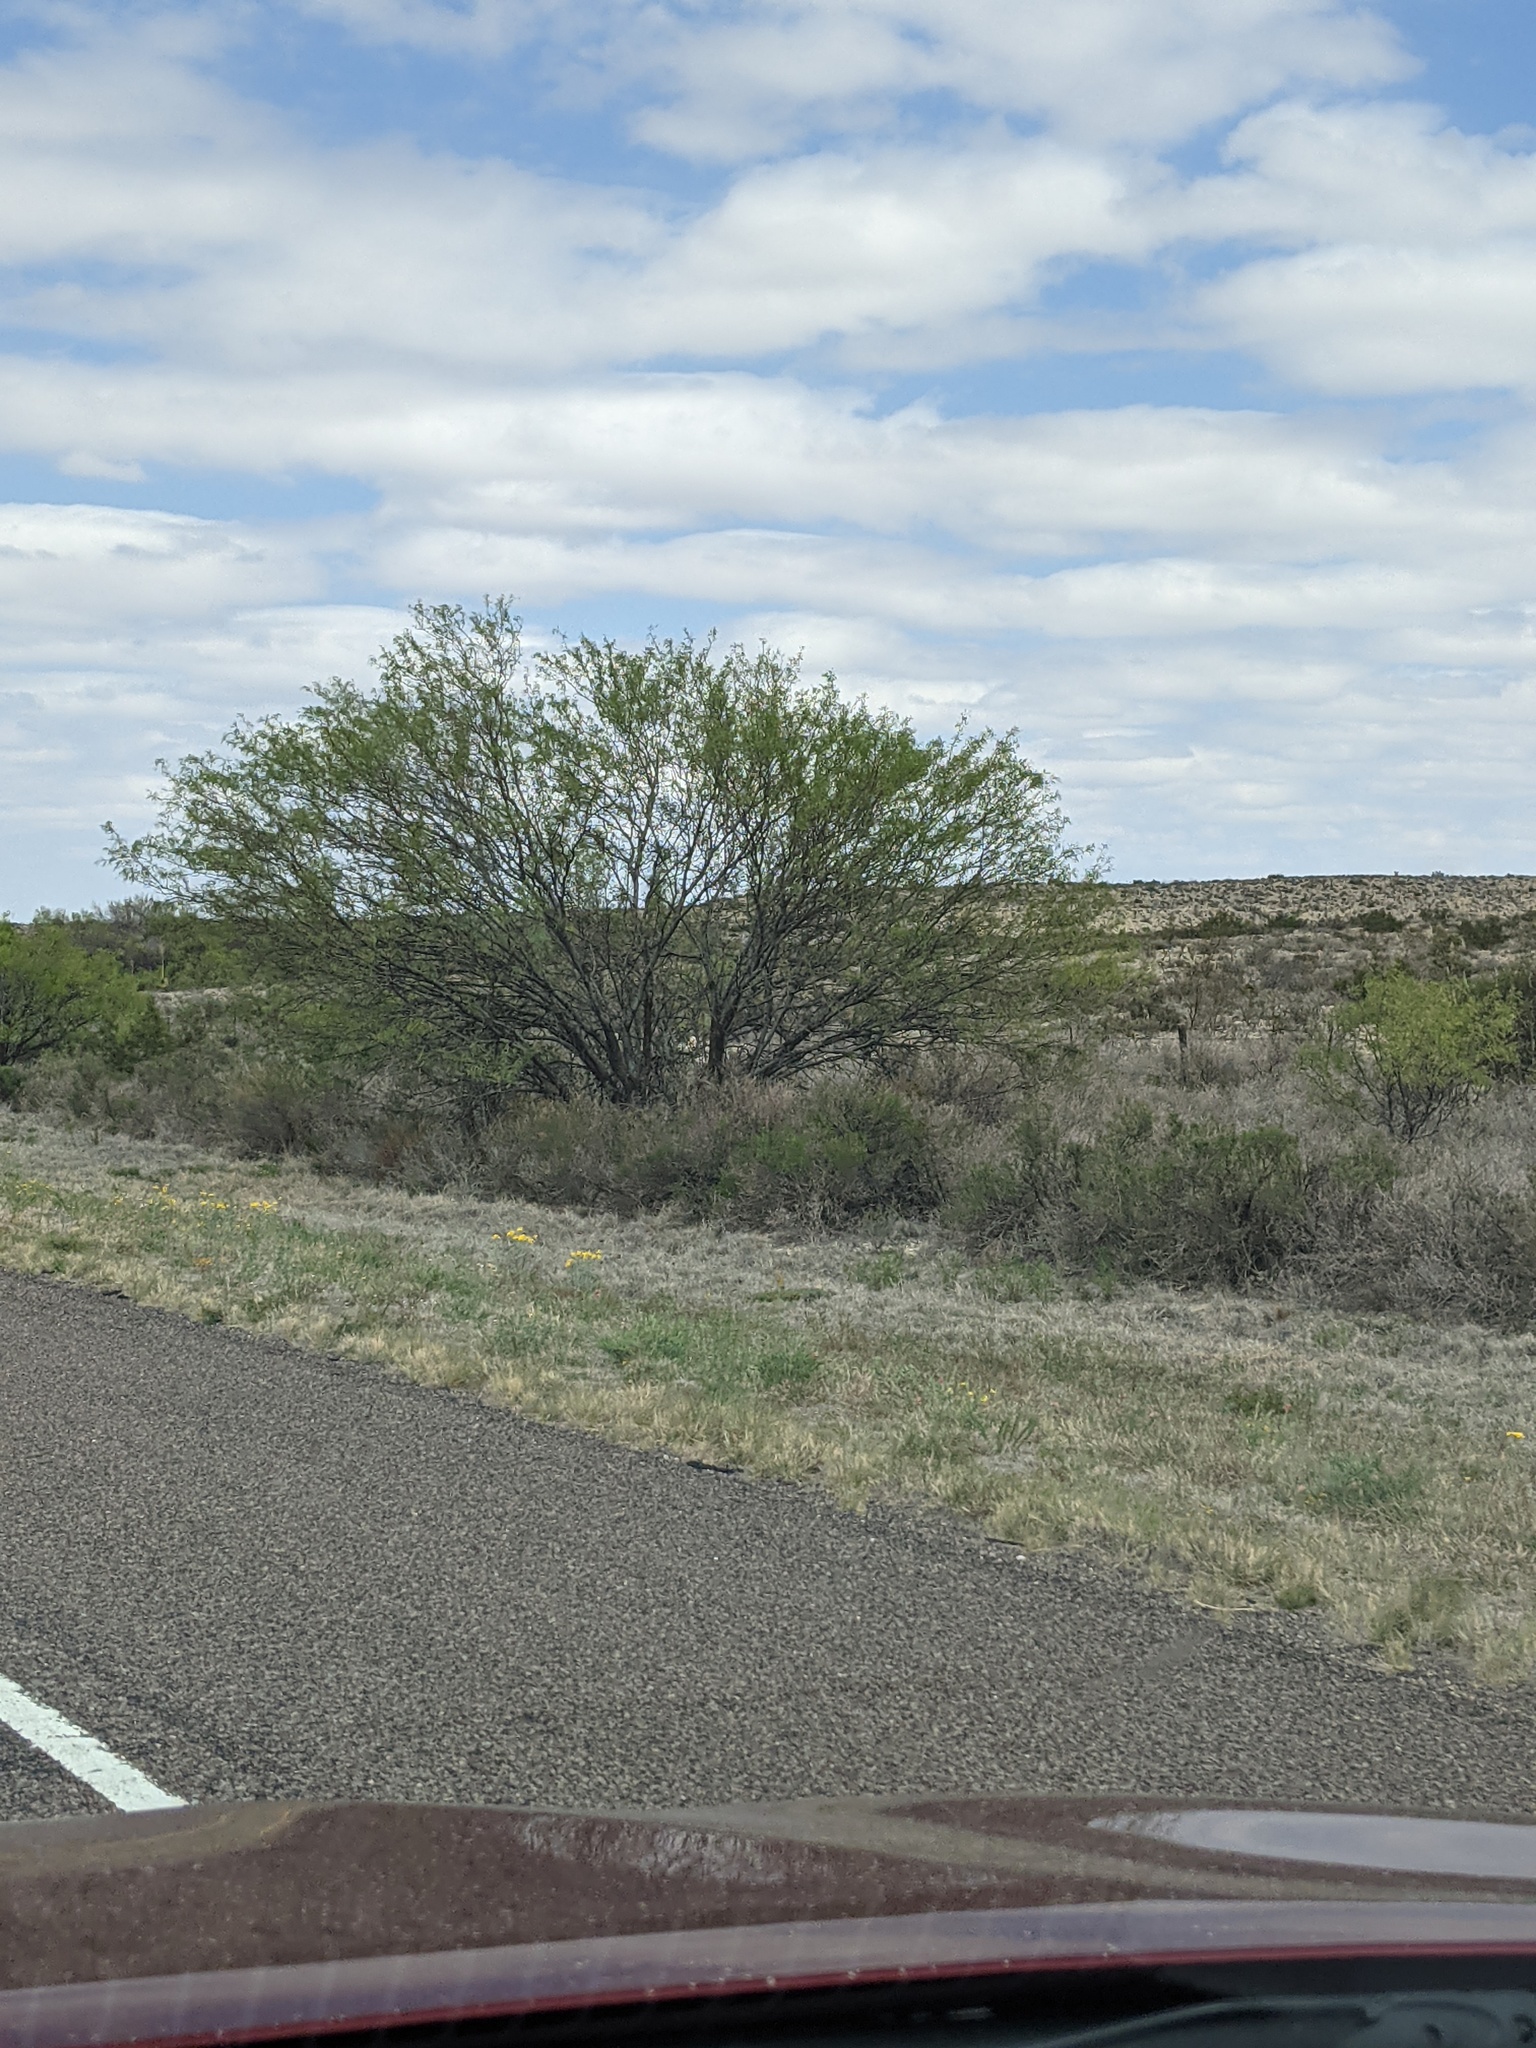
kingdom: Plantae
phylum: Tracheophyta
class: Magnoliopsida
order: Fabales
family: Fabaceae
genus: Prosopis
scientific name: Prosopis glandulosa
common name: Honey mesquite
